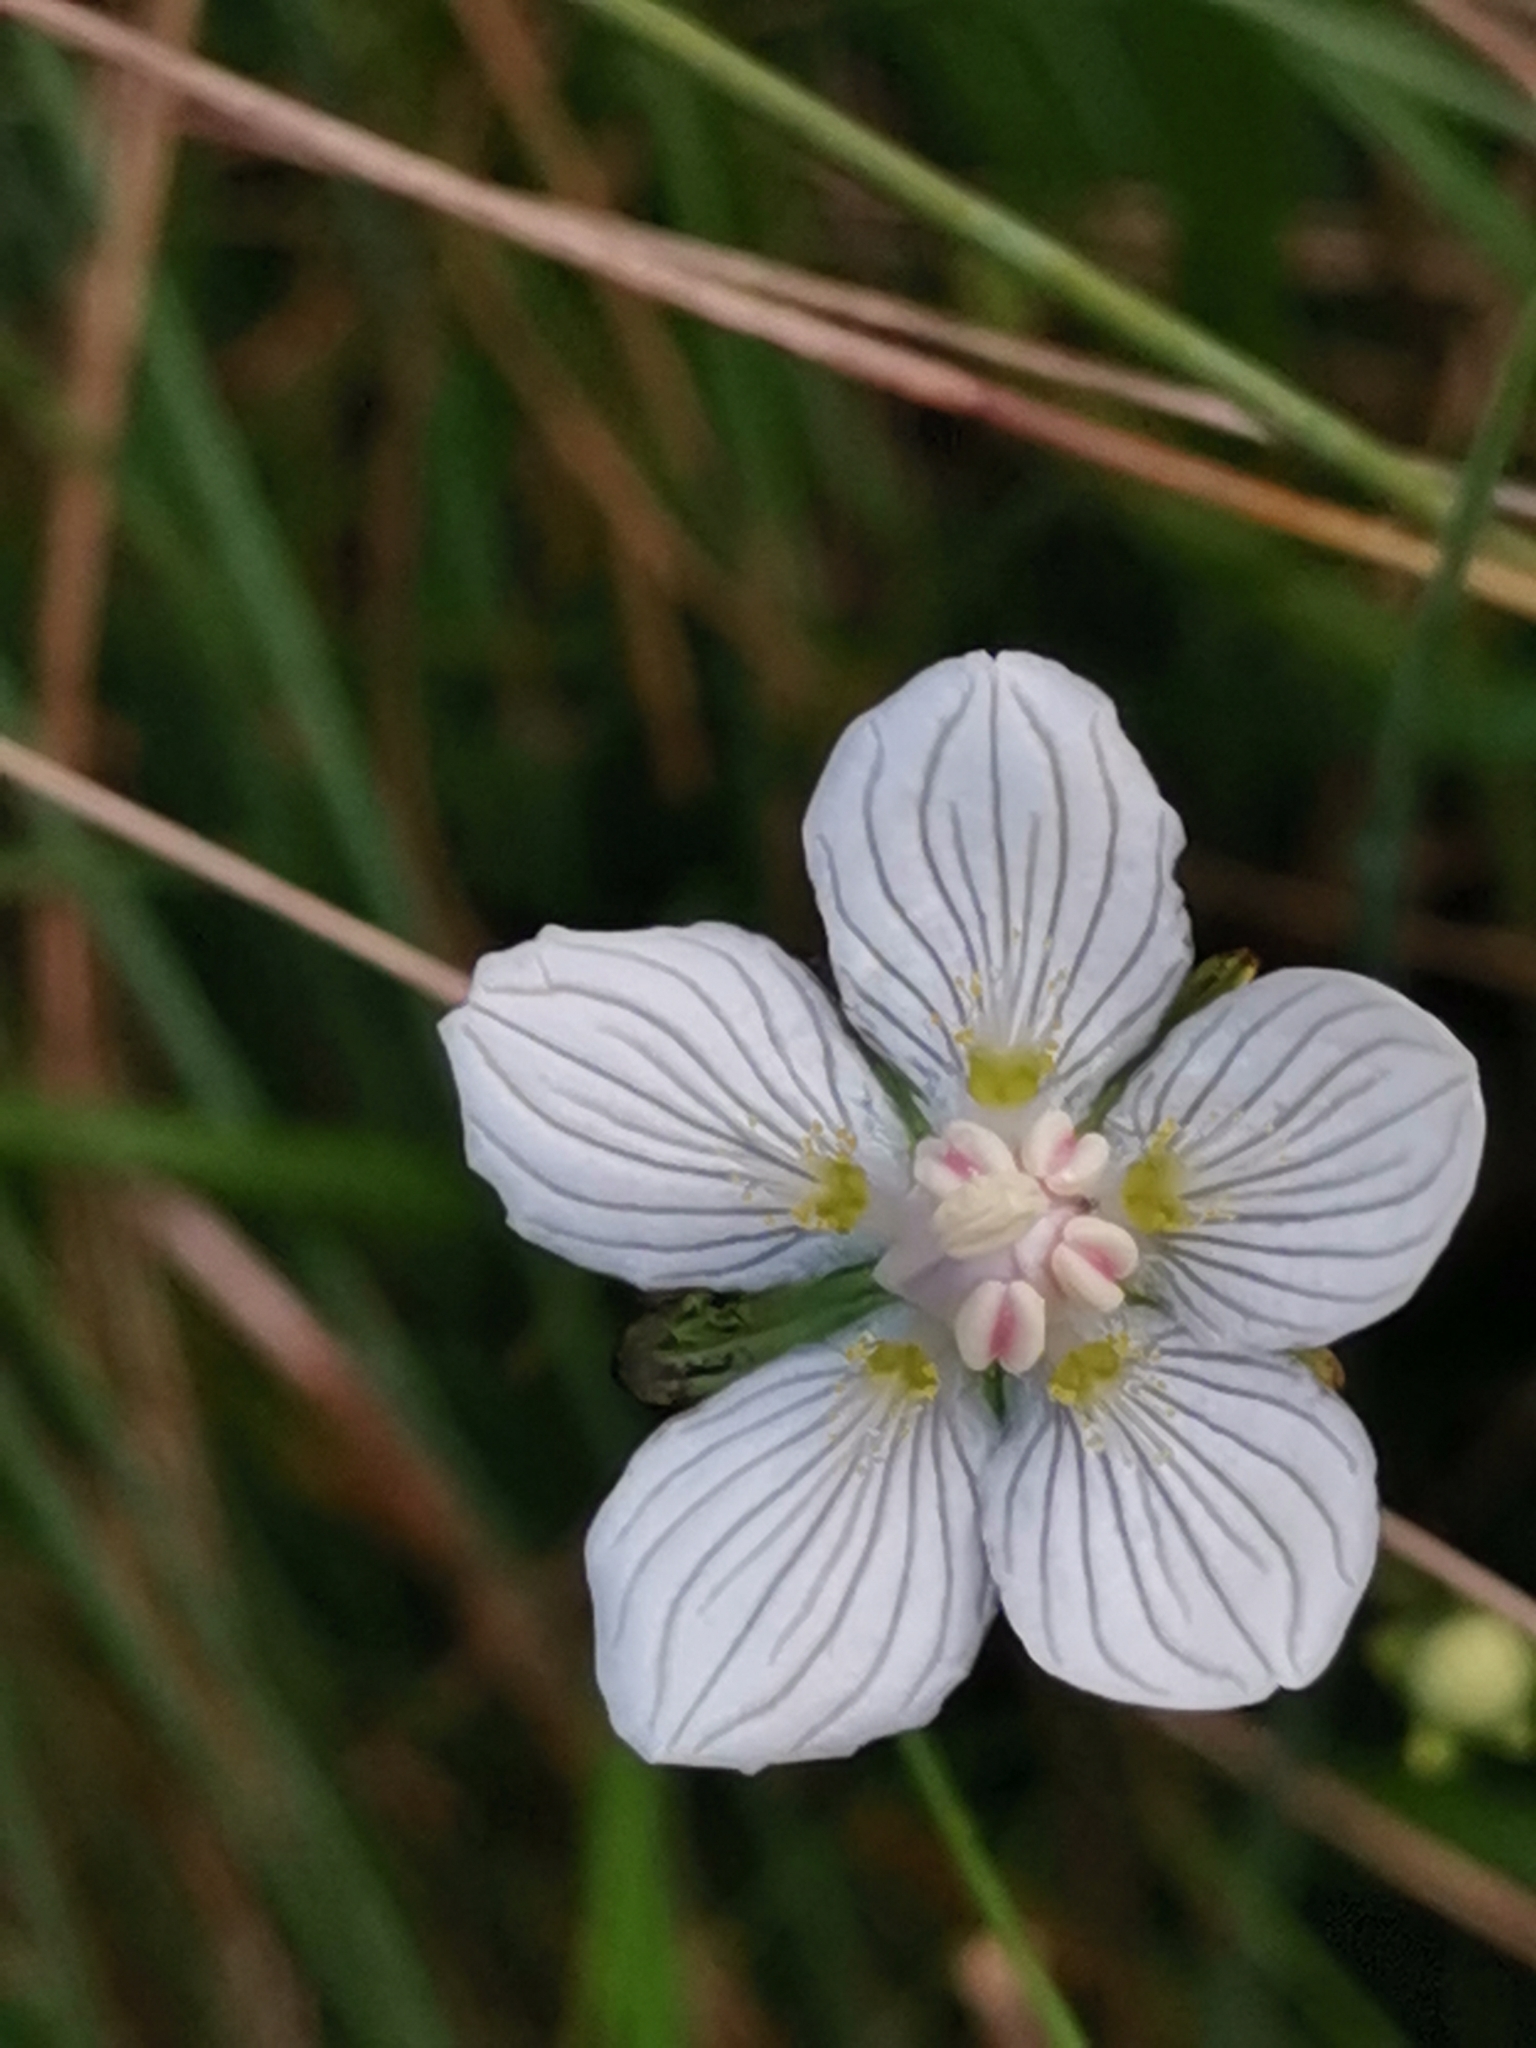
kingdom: Plantae
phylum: Tracheophyta
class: Magnoliopsida
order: Celastrales
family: Parnassiaceae
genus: Parnassia
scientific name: Parnassia palustris
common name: Grass-of-parnassus
